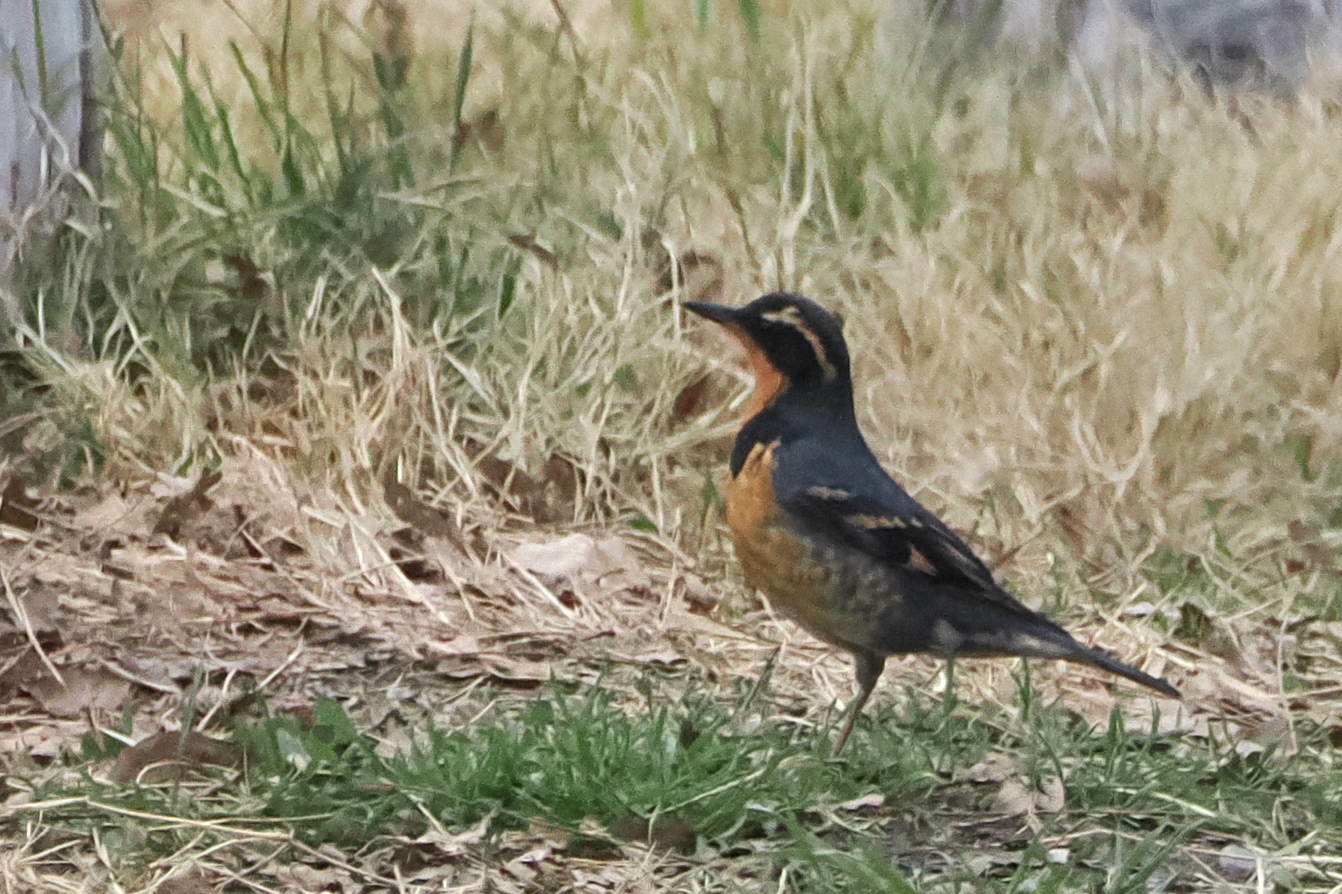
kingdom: Animalia
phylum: Chordata
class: Aves
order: Passeriformes
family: Turdidae
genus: Ixoreus
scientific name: Ixoreus naevius
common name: Varied thrush
